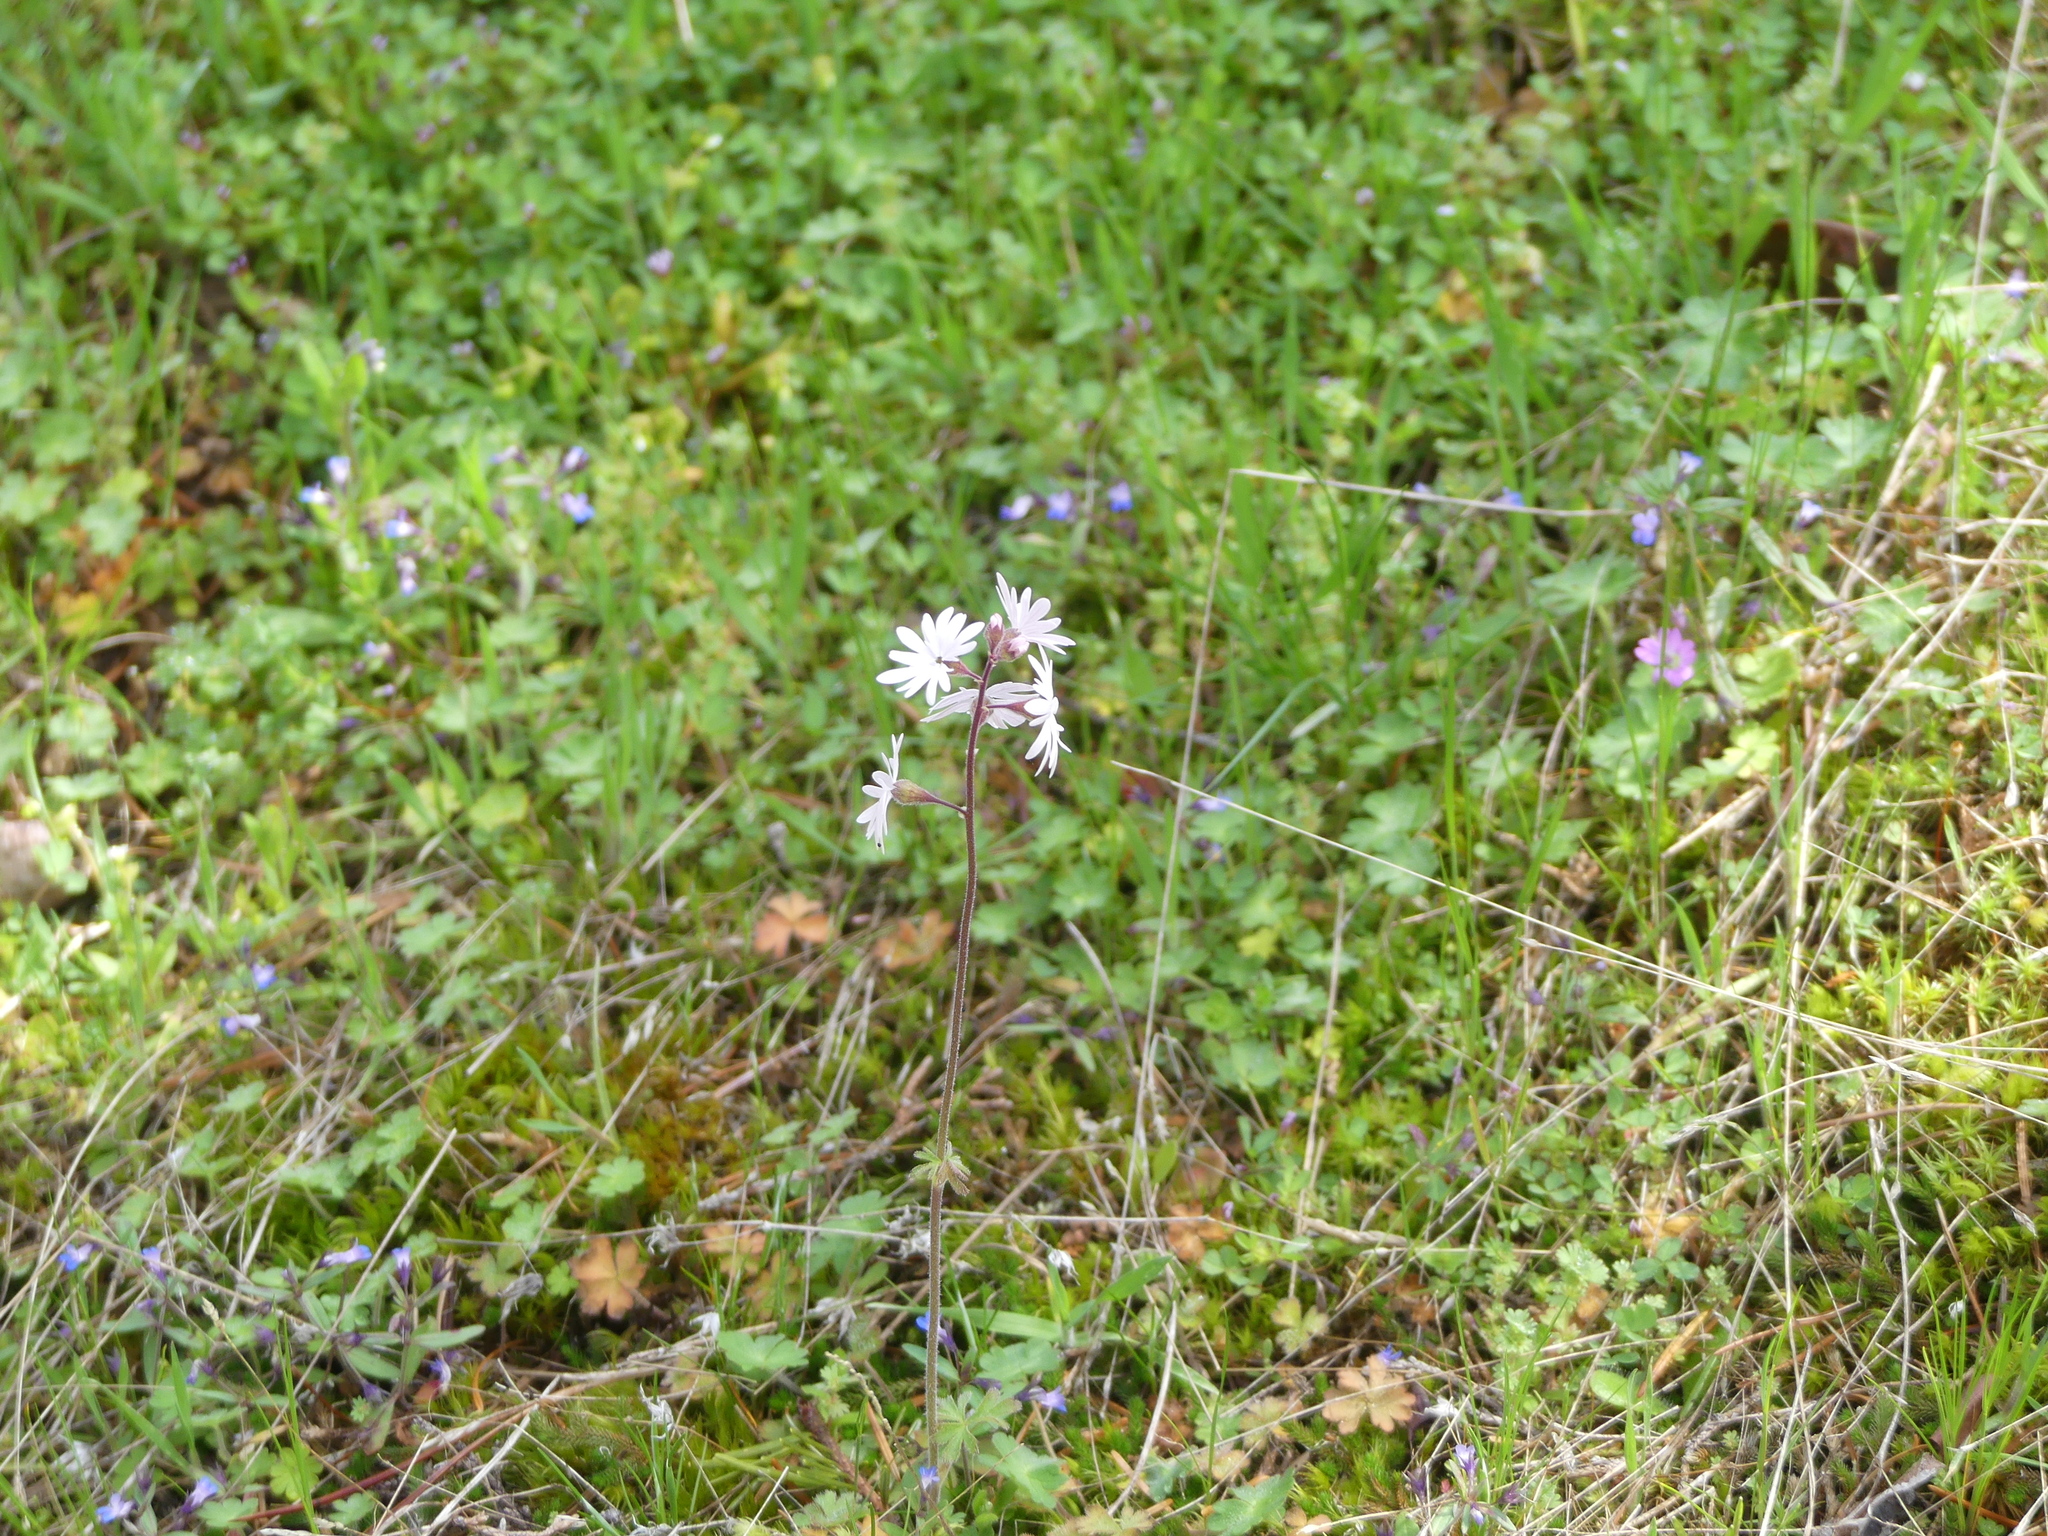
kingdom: Plantae
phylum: Tracheophyta
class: Magnoliopsida
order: Saxifragales
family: Saxifragaceae
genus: Lithophragma
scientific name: Lithophragma parviflorum
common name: Small-flowered fringe-cup
